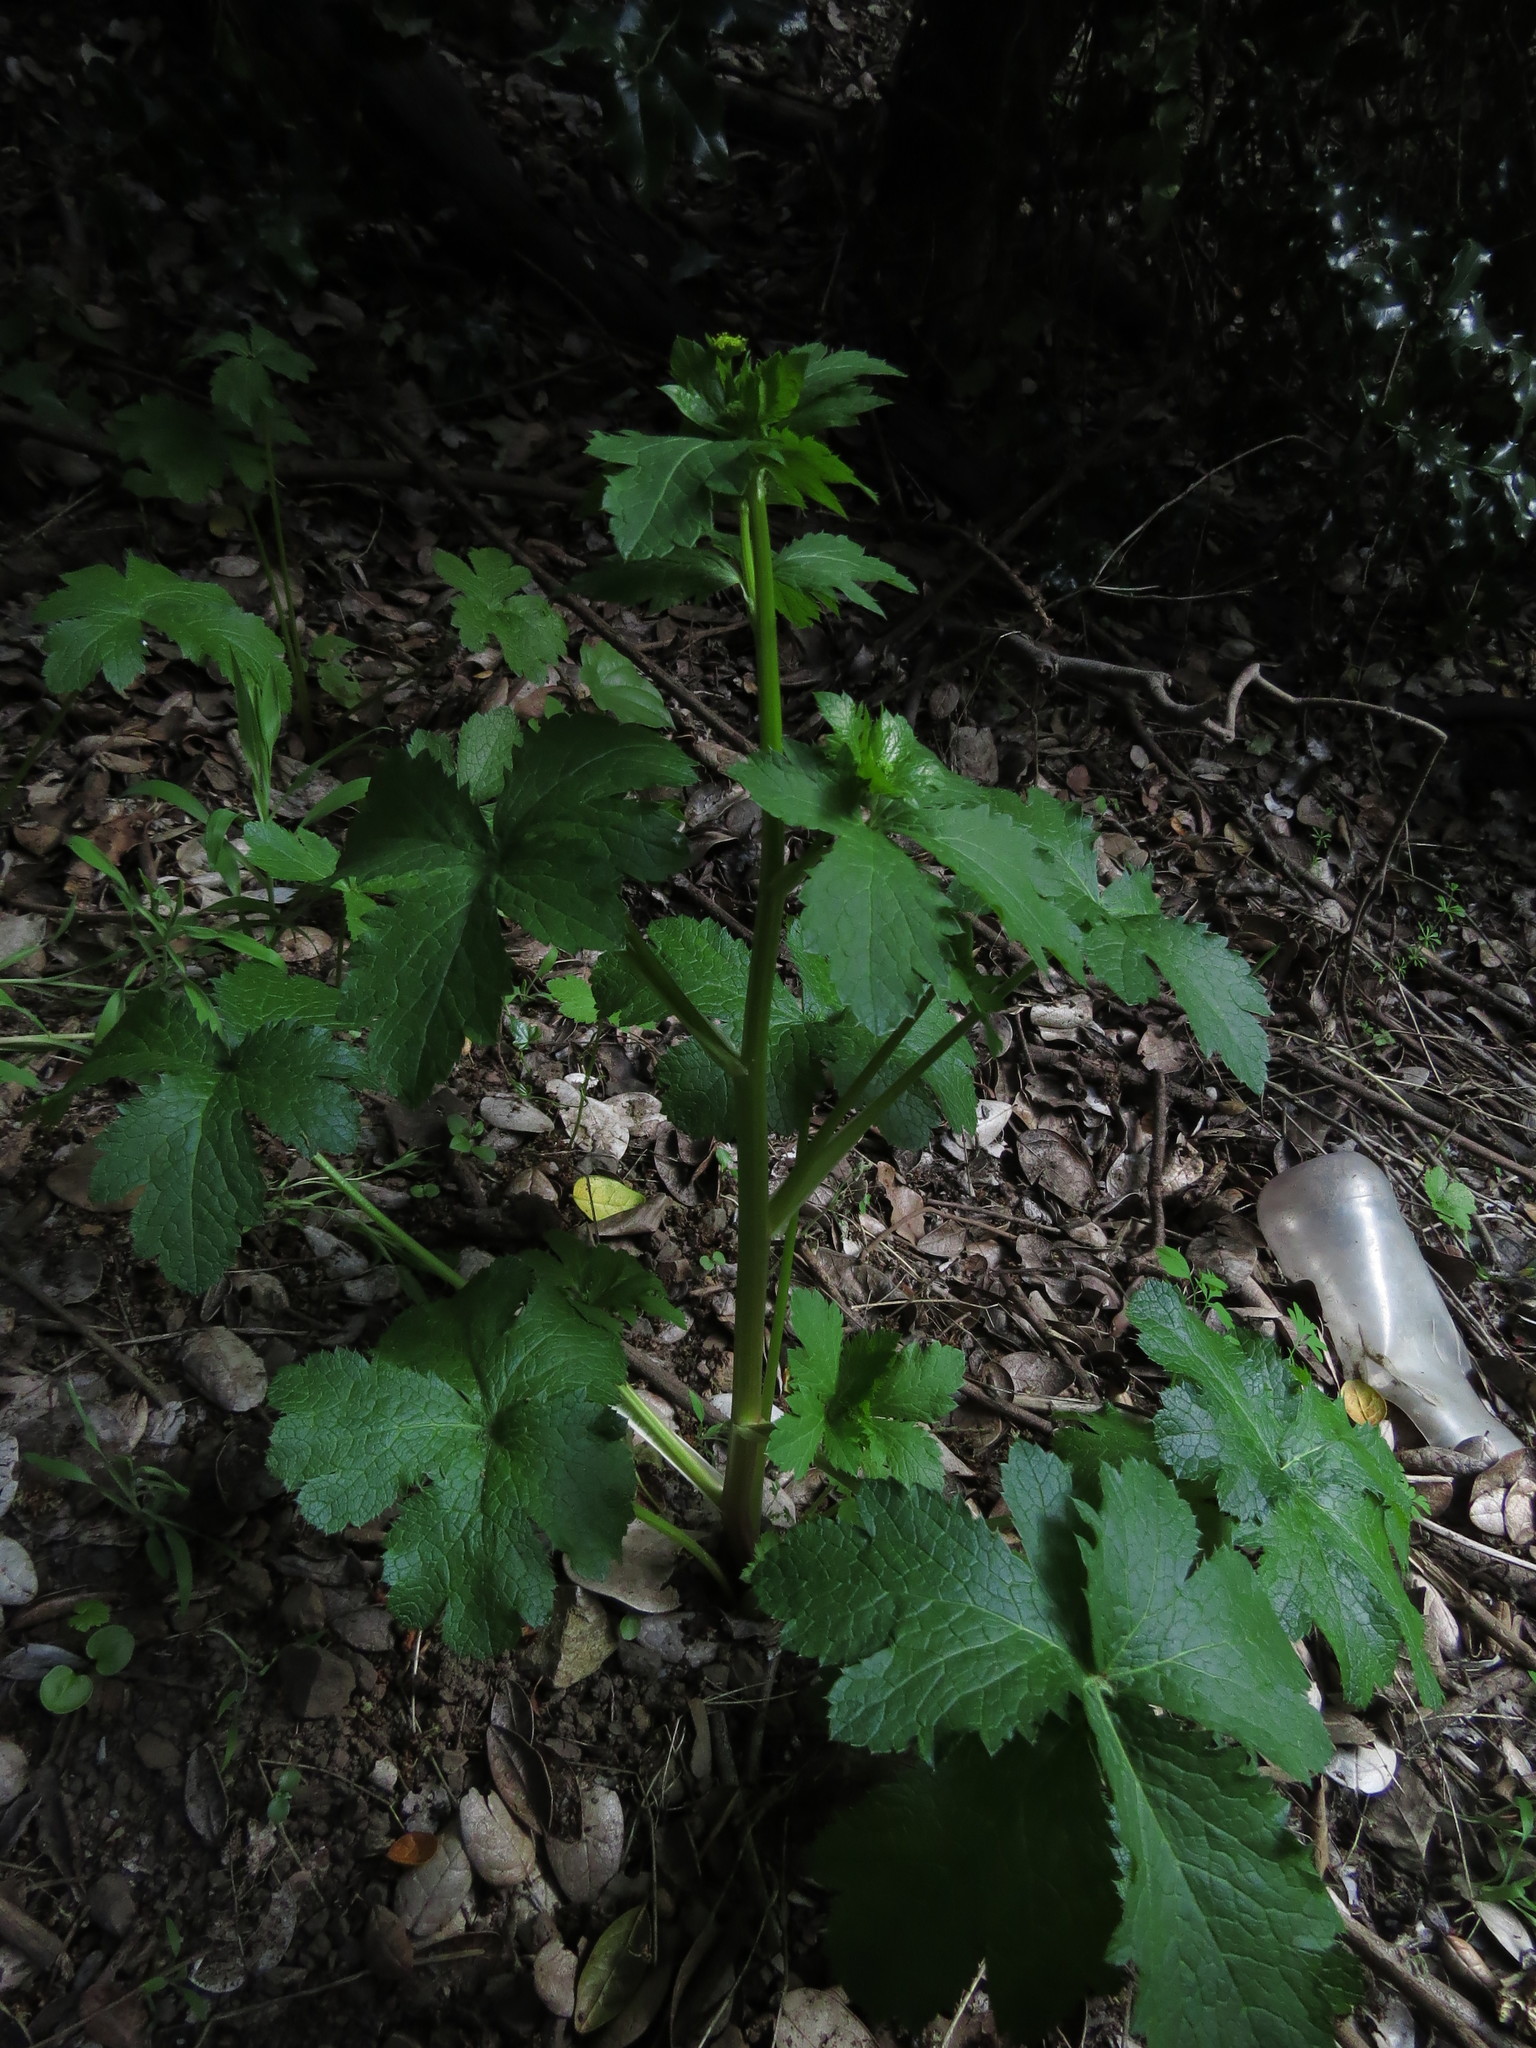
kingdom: Plantae
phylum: Tracheophyta
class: Magnoliopsida
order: Apiales
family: Apiaceae
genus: Sanicula
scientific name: Sanicula crassicaulis
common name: Western snakeroot
